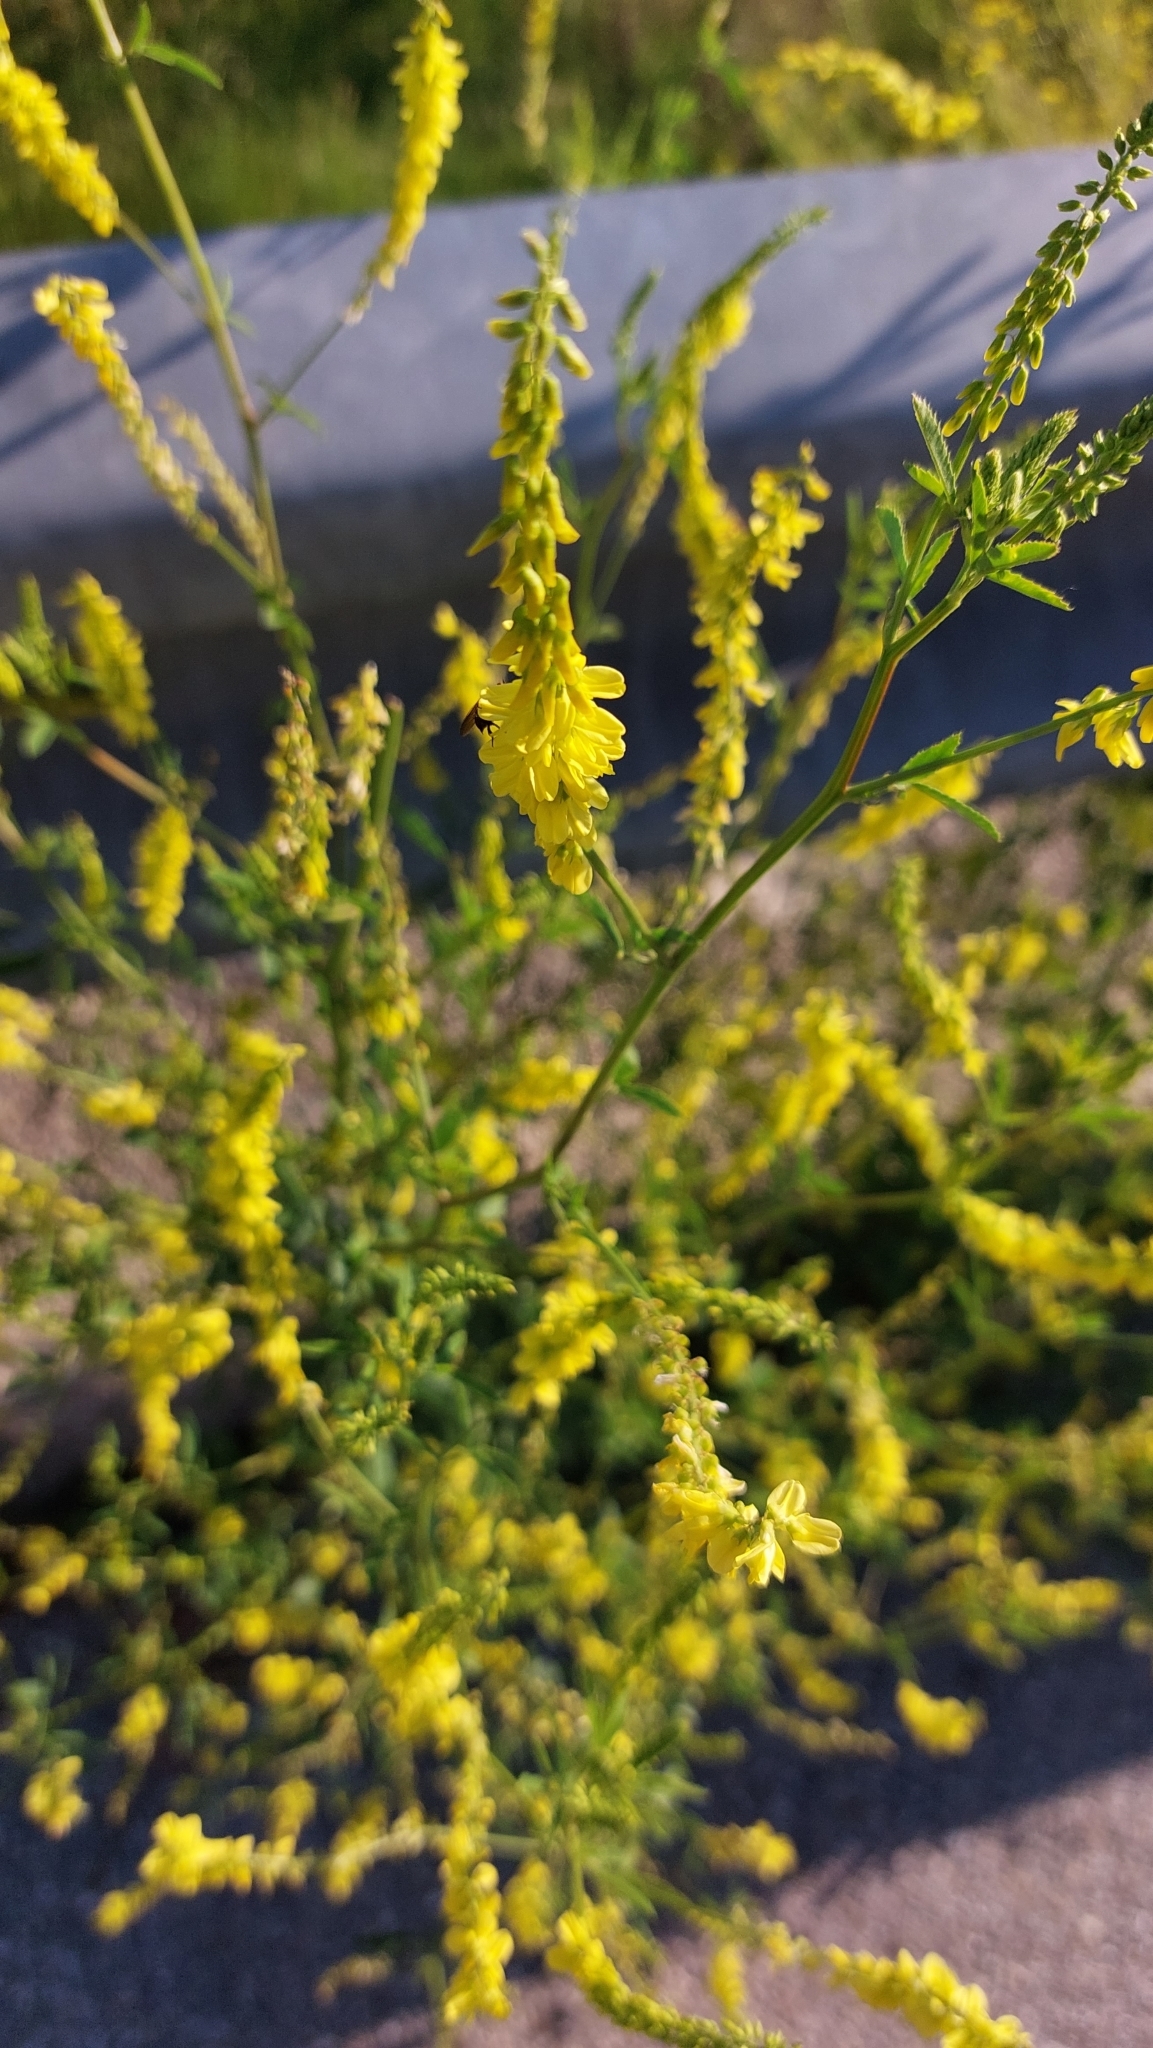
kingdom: Plantae
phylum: Tracheophyta
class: Magnoliopsida
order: Fabales
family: Fabaceae
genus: Melilotus
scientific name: Melilotus officinalis
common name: Sweetclover
